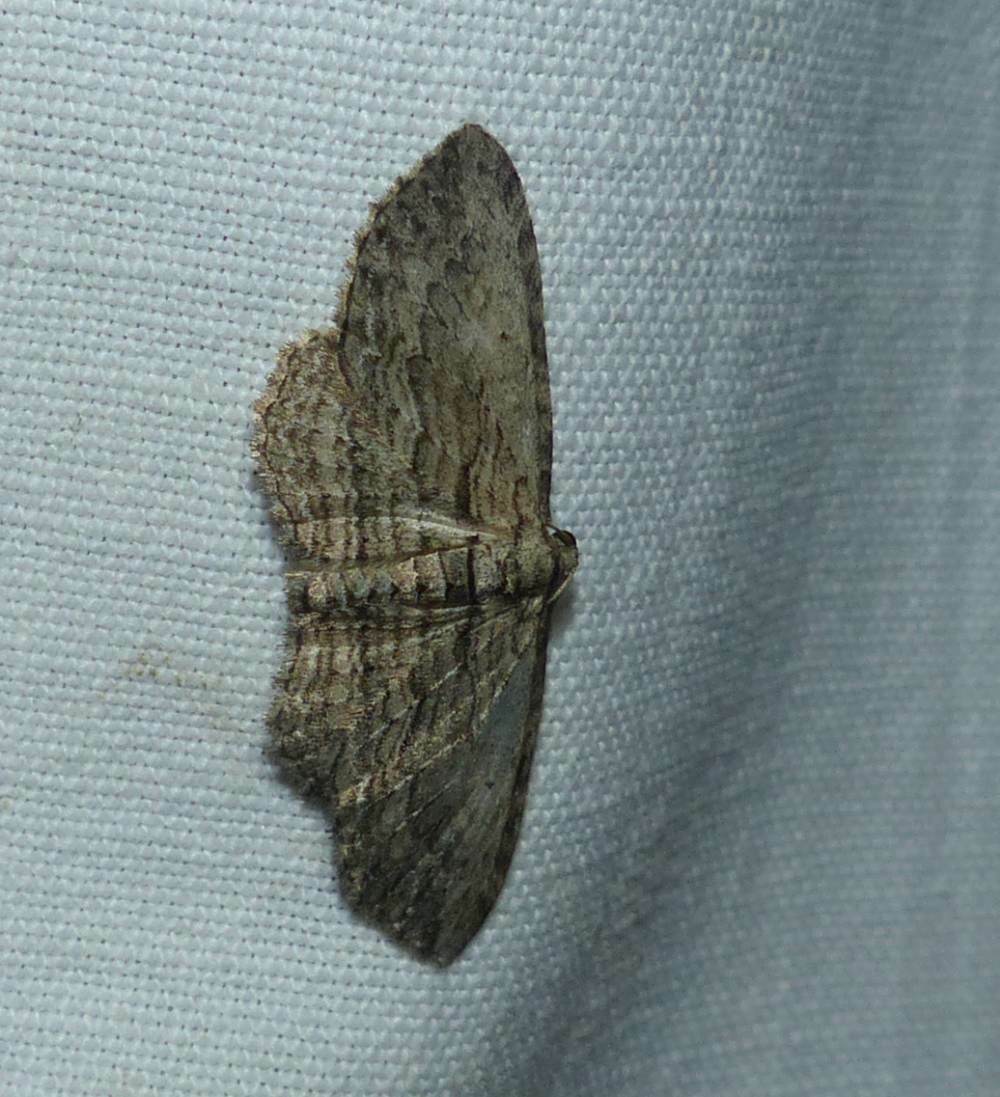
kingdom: Animalia
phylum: Arthropoda
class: Insecta
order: Lepidoptera
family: Geometridae
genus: Horisme
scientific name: Horisme intestinata
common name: Brown bark carpet
